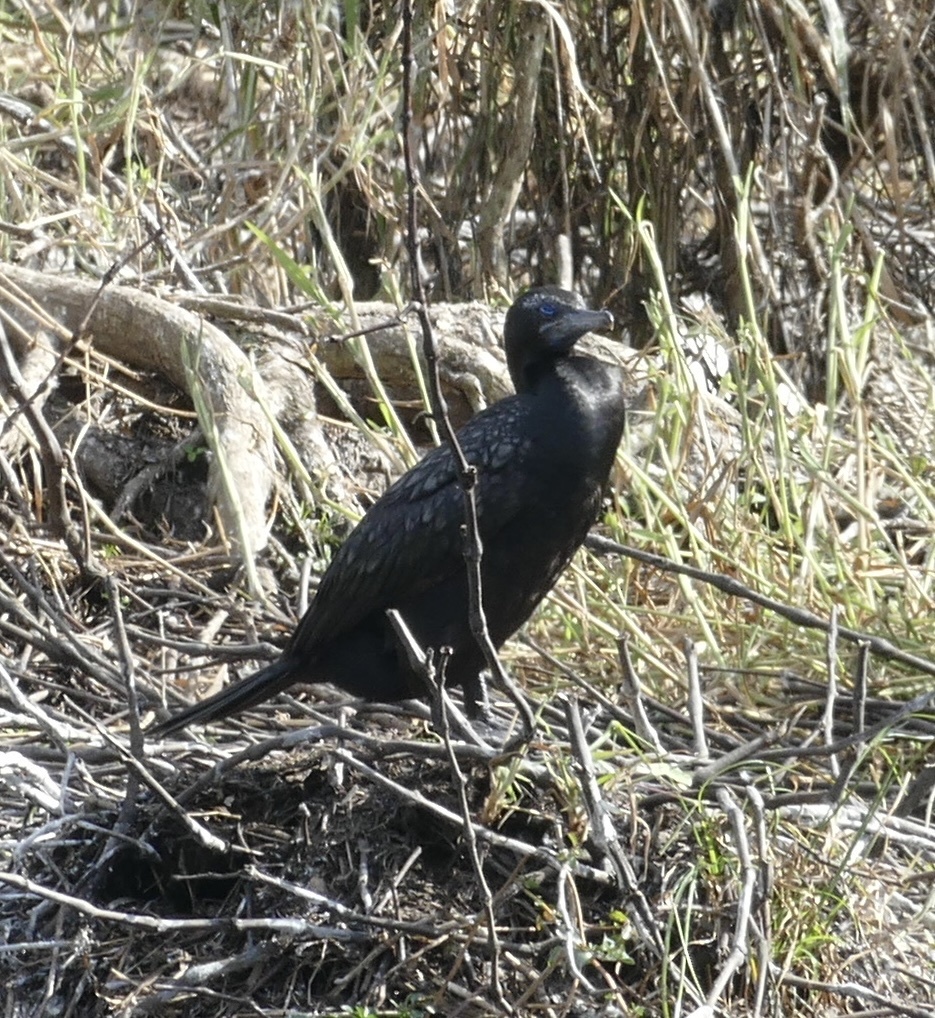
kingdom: Animalia
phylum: Chordata
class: Aves
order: Suliformes
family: Phalacrocoracidae
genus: Phalacrocorax
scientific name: Phalacrocorax sulcirostris
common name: Little black cormorant
